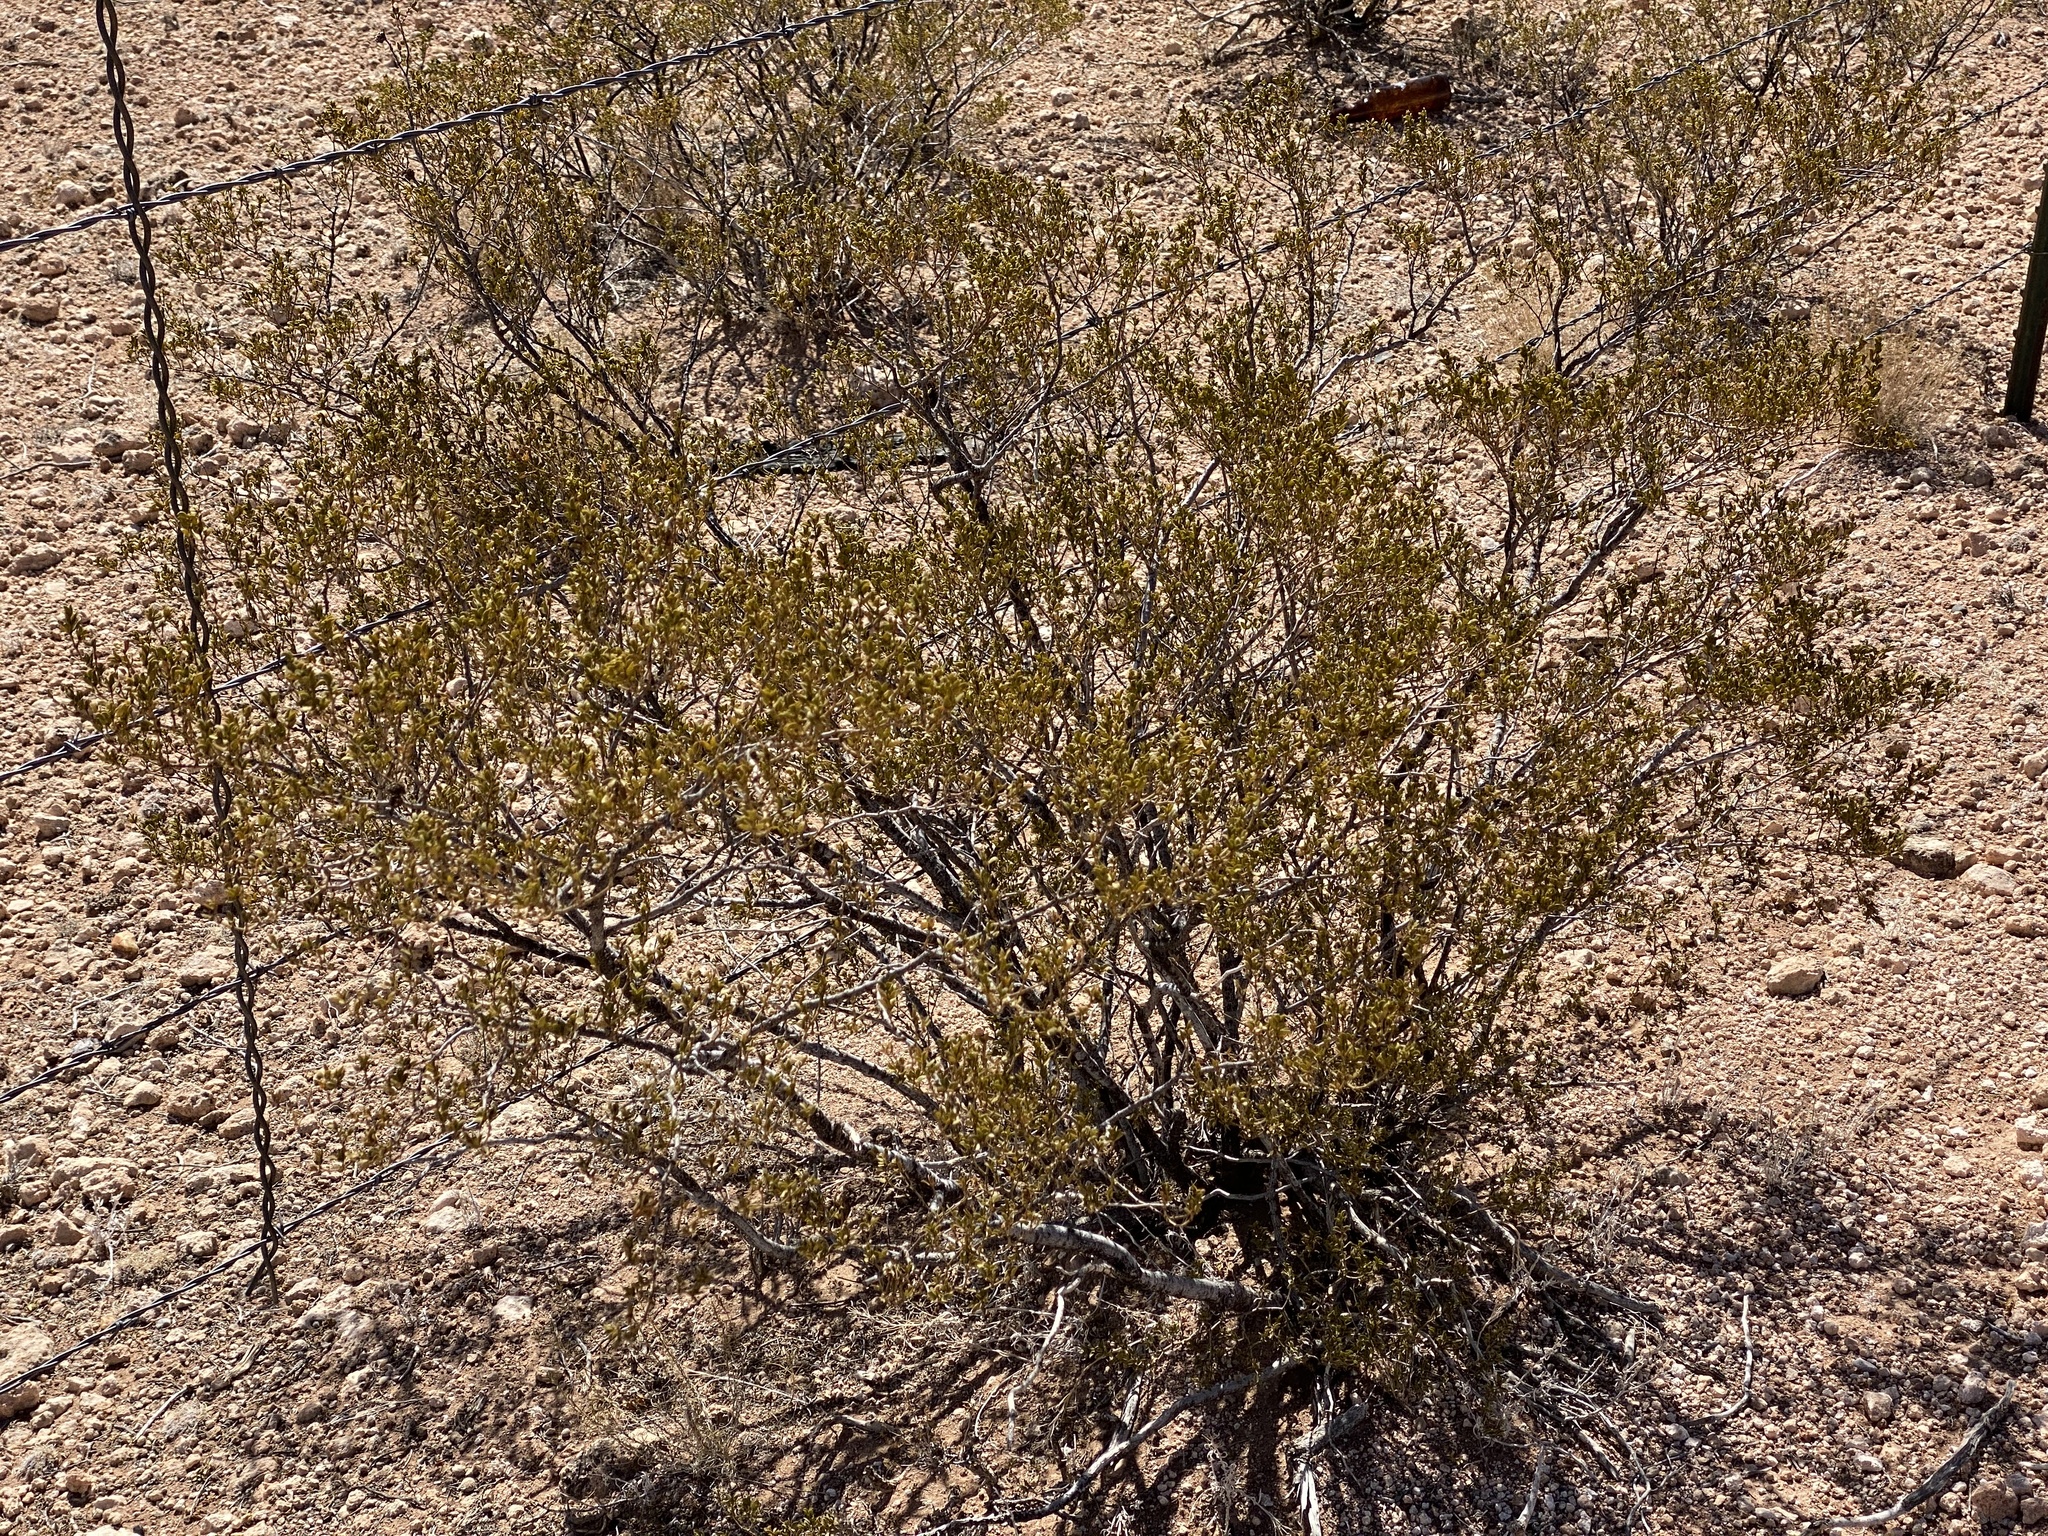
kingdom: Plantae
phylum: Tracheophyta
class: Magnoliopsida
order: Zygophyllales
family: Zygophyllaceae
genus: Larrea
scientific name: Larrea tridentata
